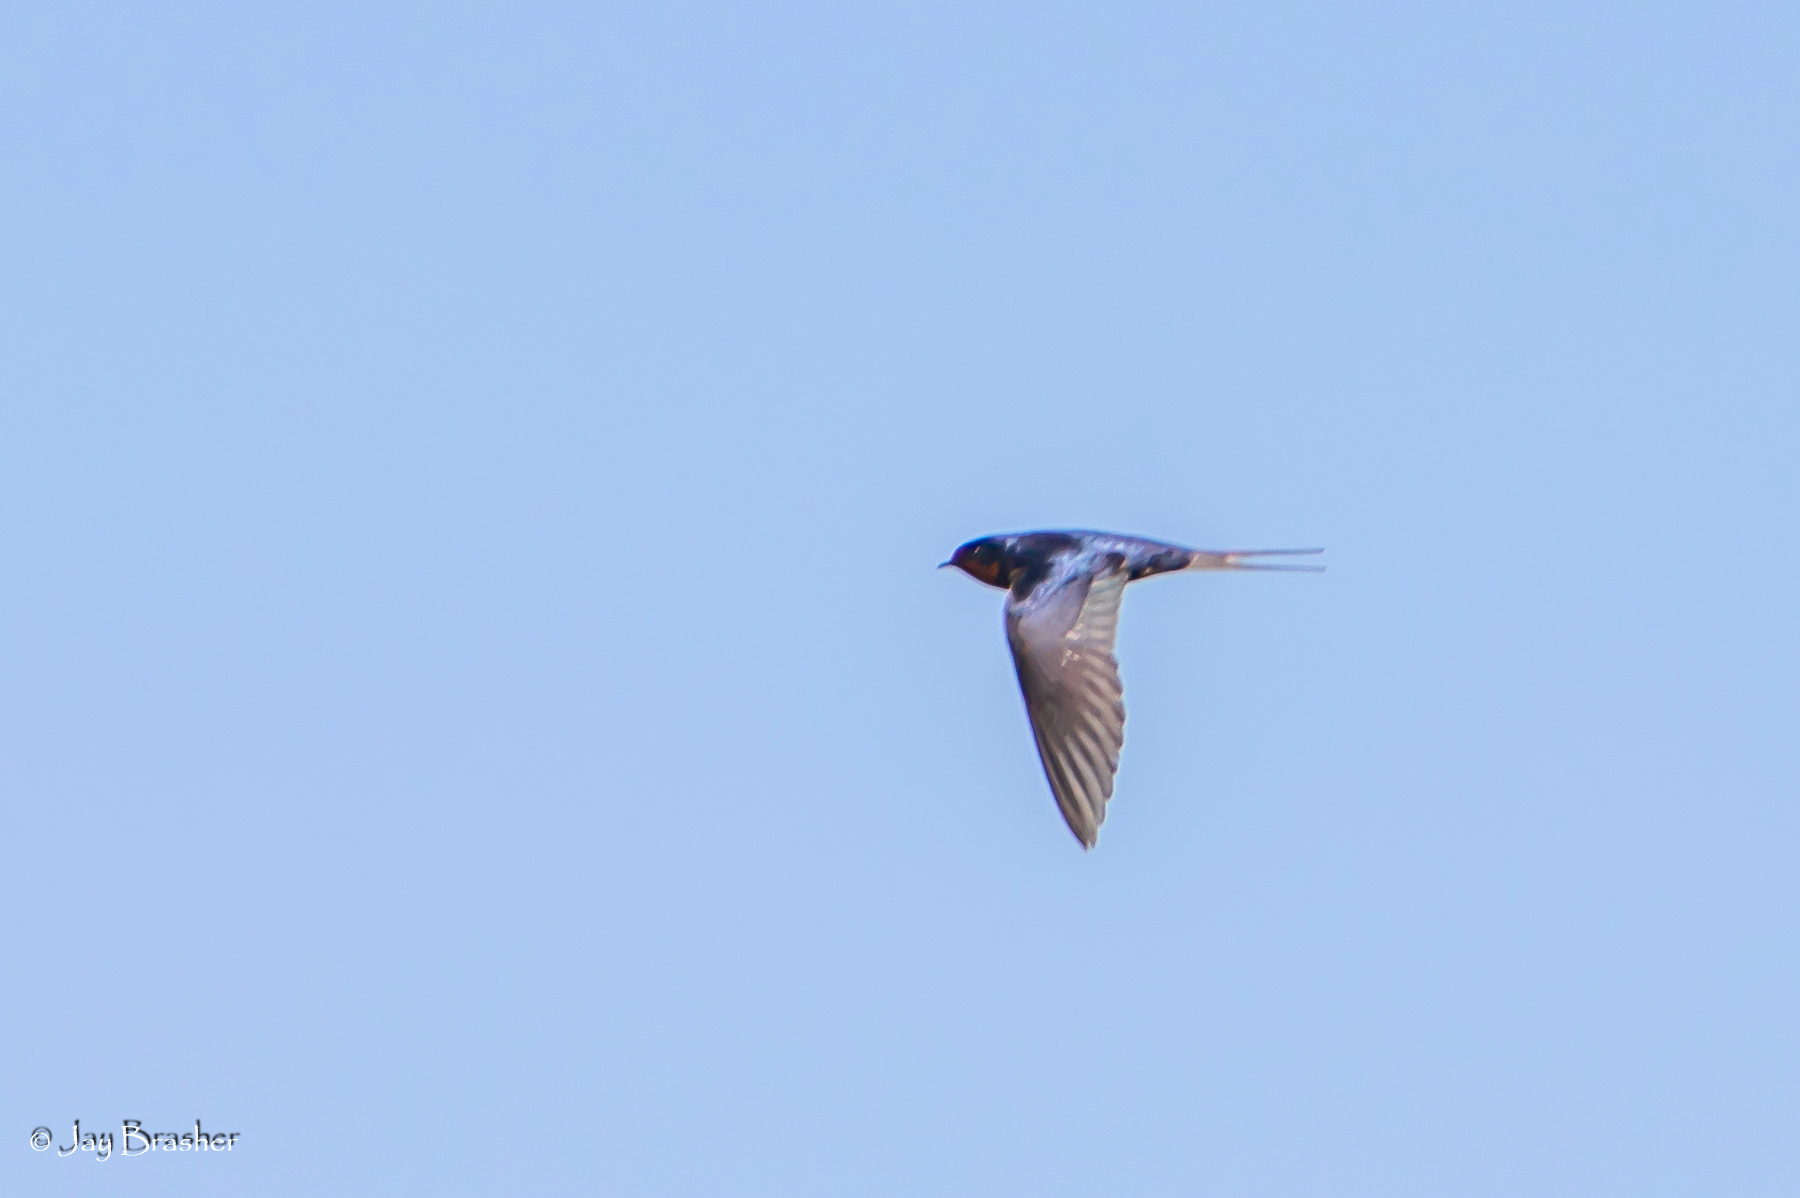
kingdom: Animalia
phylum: Chordata
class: Aves
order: Passeriformes
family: Hirundinidae
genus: Hirundo
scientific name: Hirundo rustica
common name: Barn swallow
